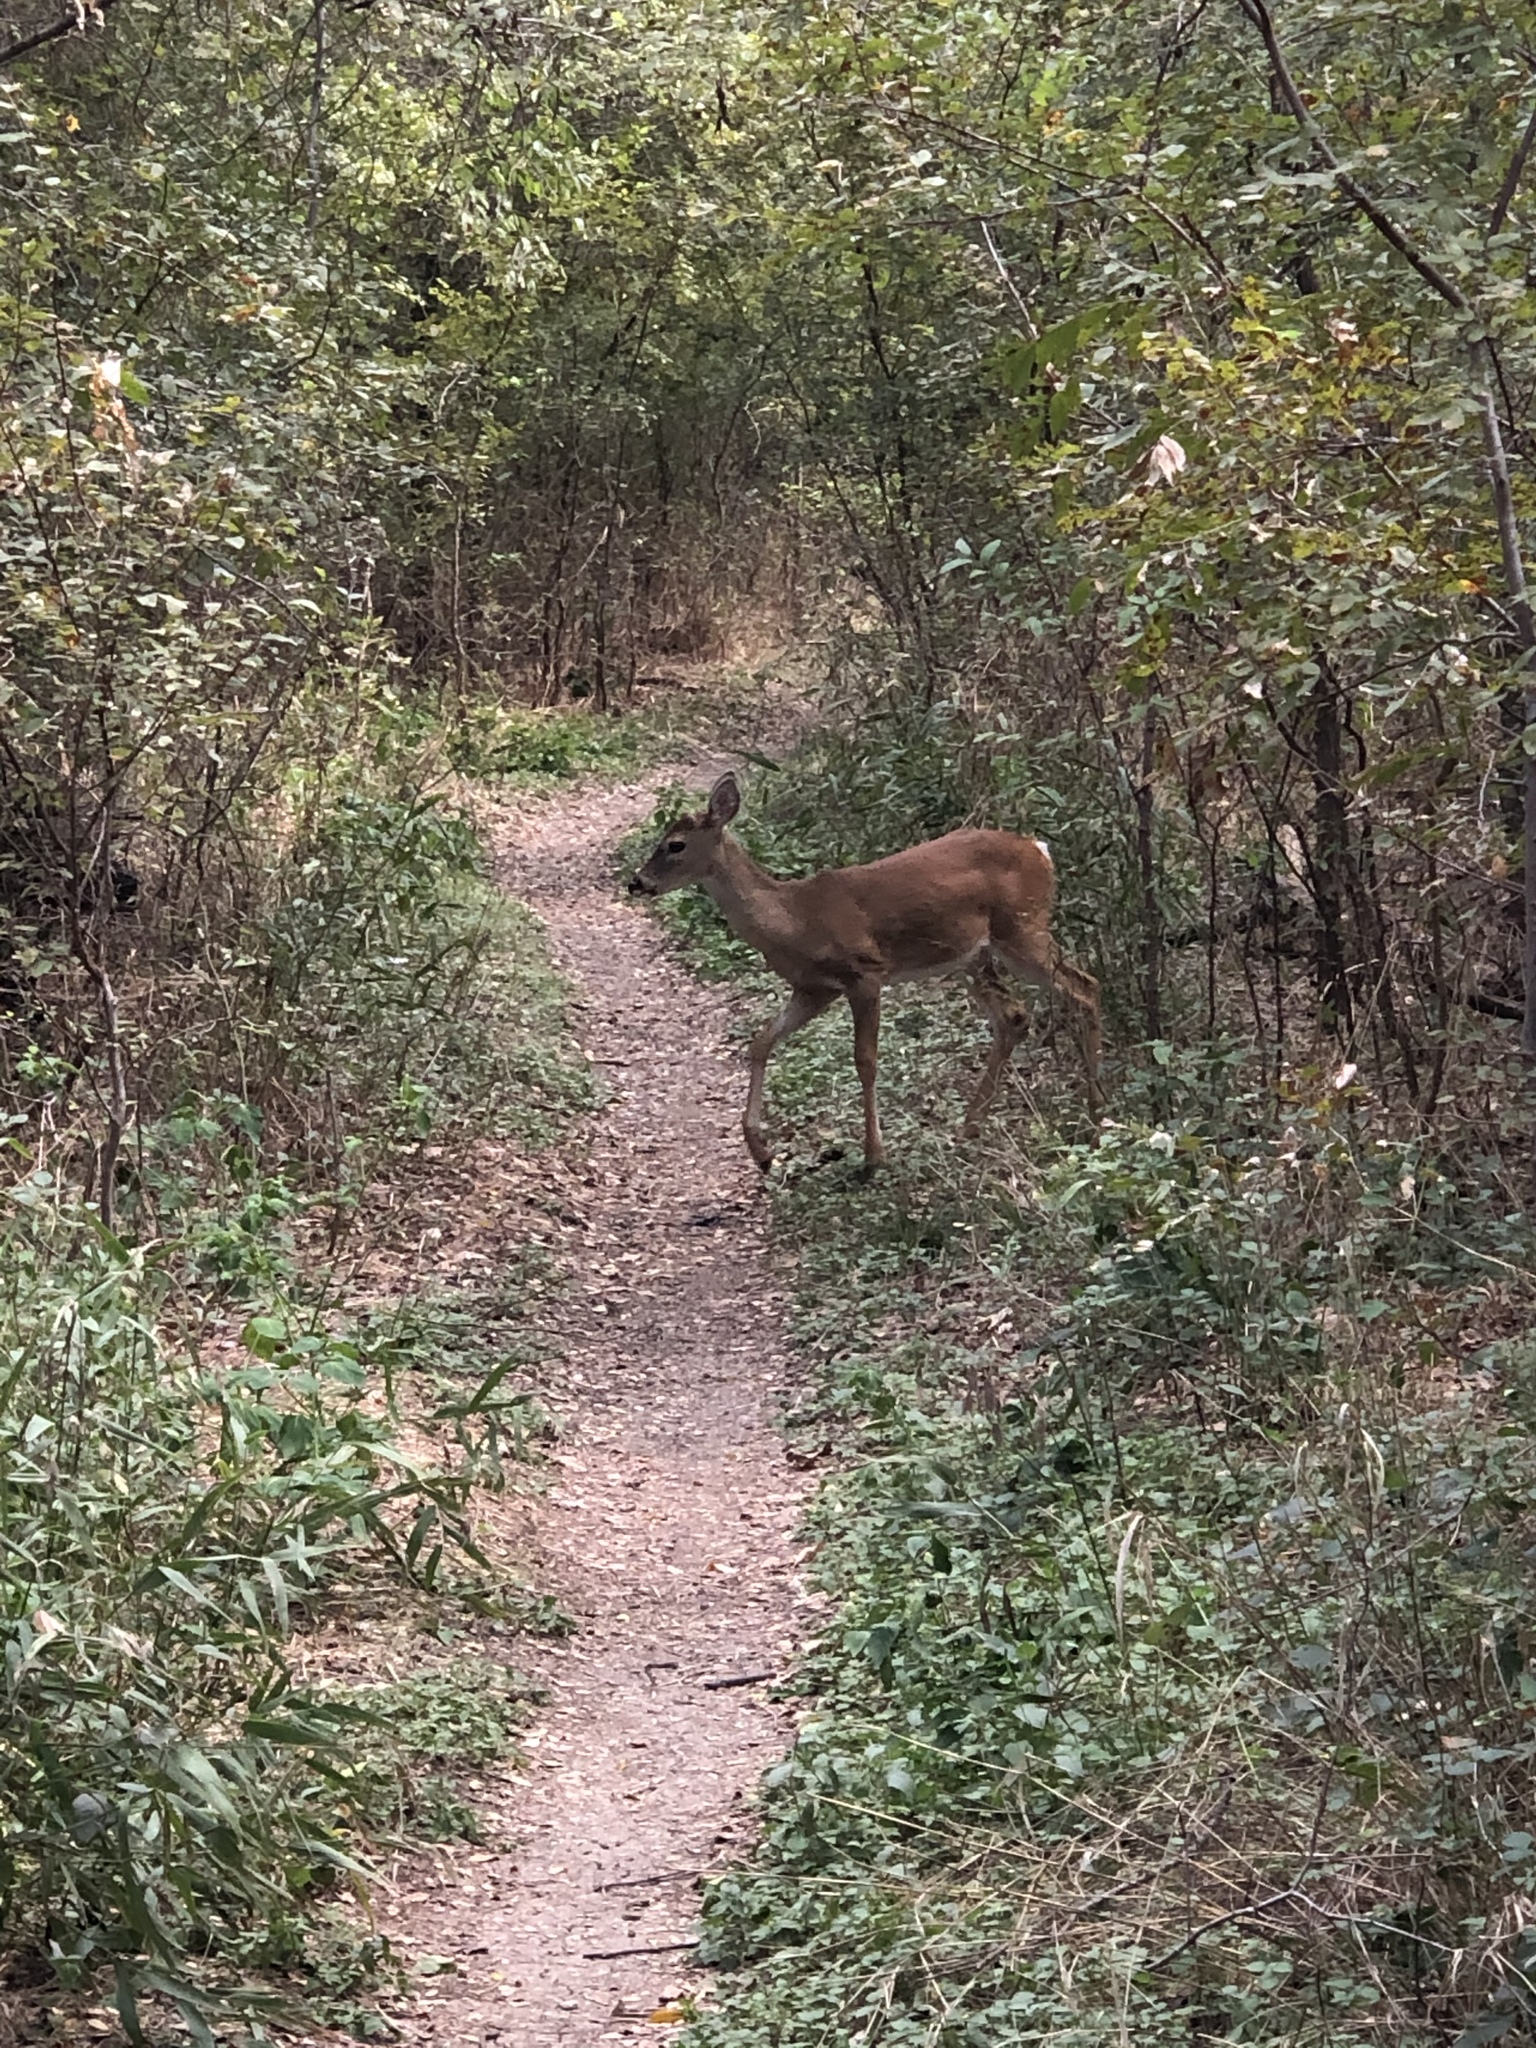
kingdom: Animalia
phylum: Chordata
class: Mammalia
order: Artiodactyla
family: Cervidae
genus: Odocoileus
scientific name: Odocoileus virginianus
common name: White-tailed deer
